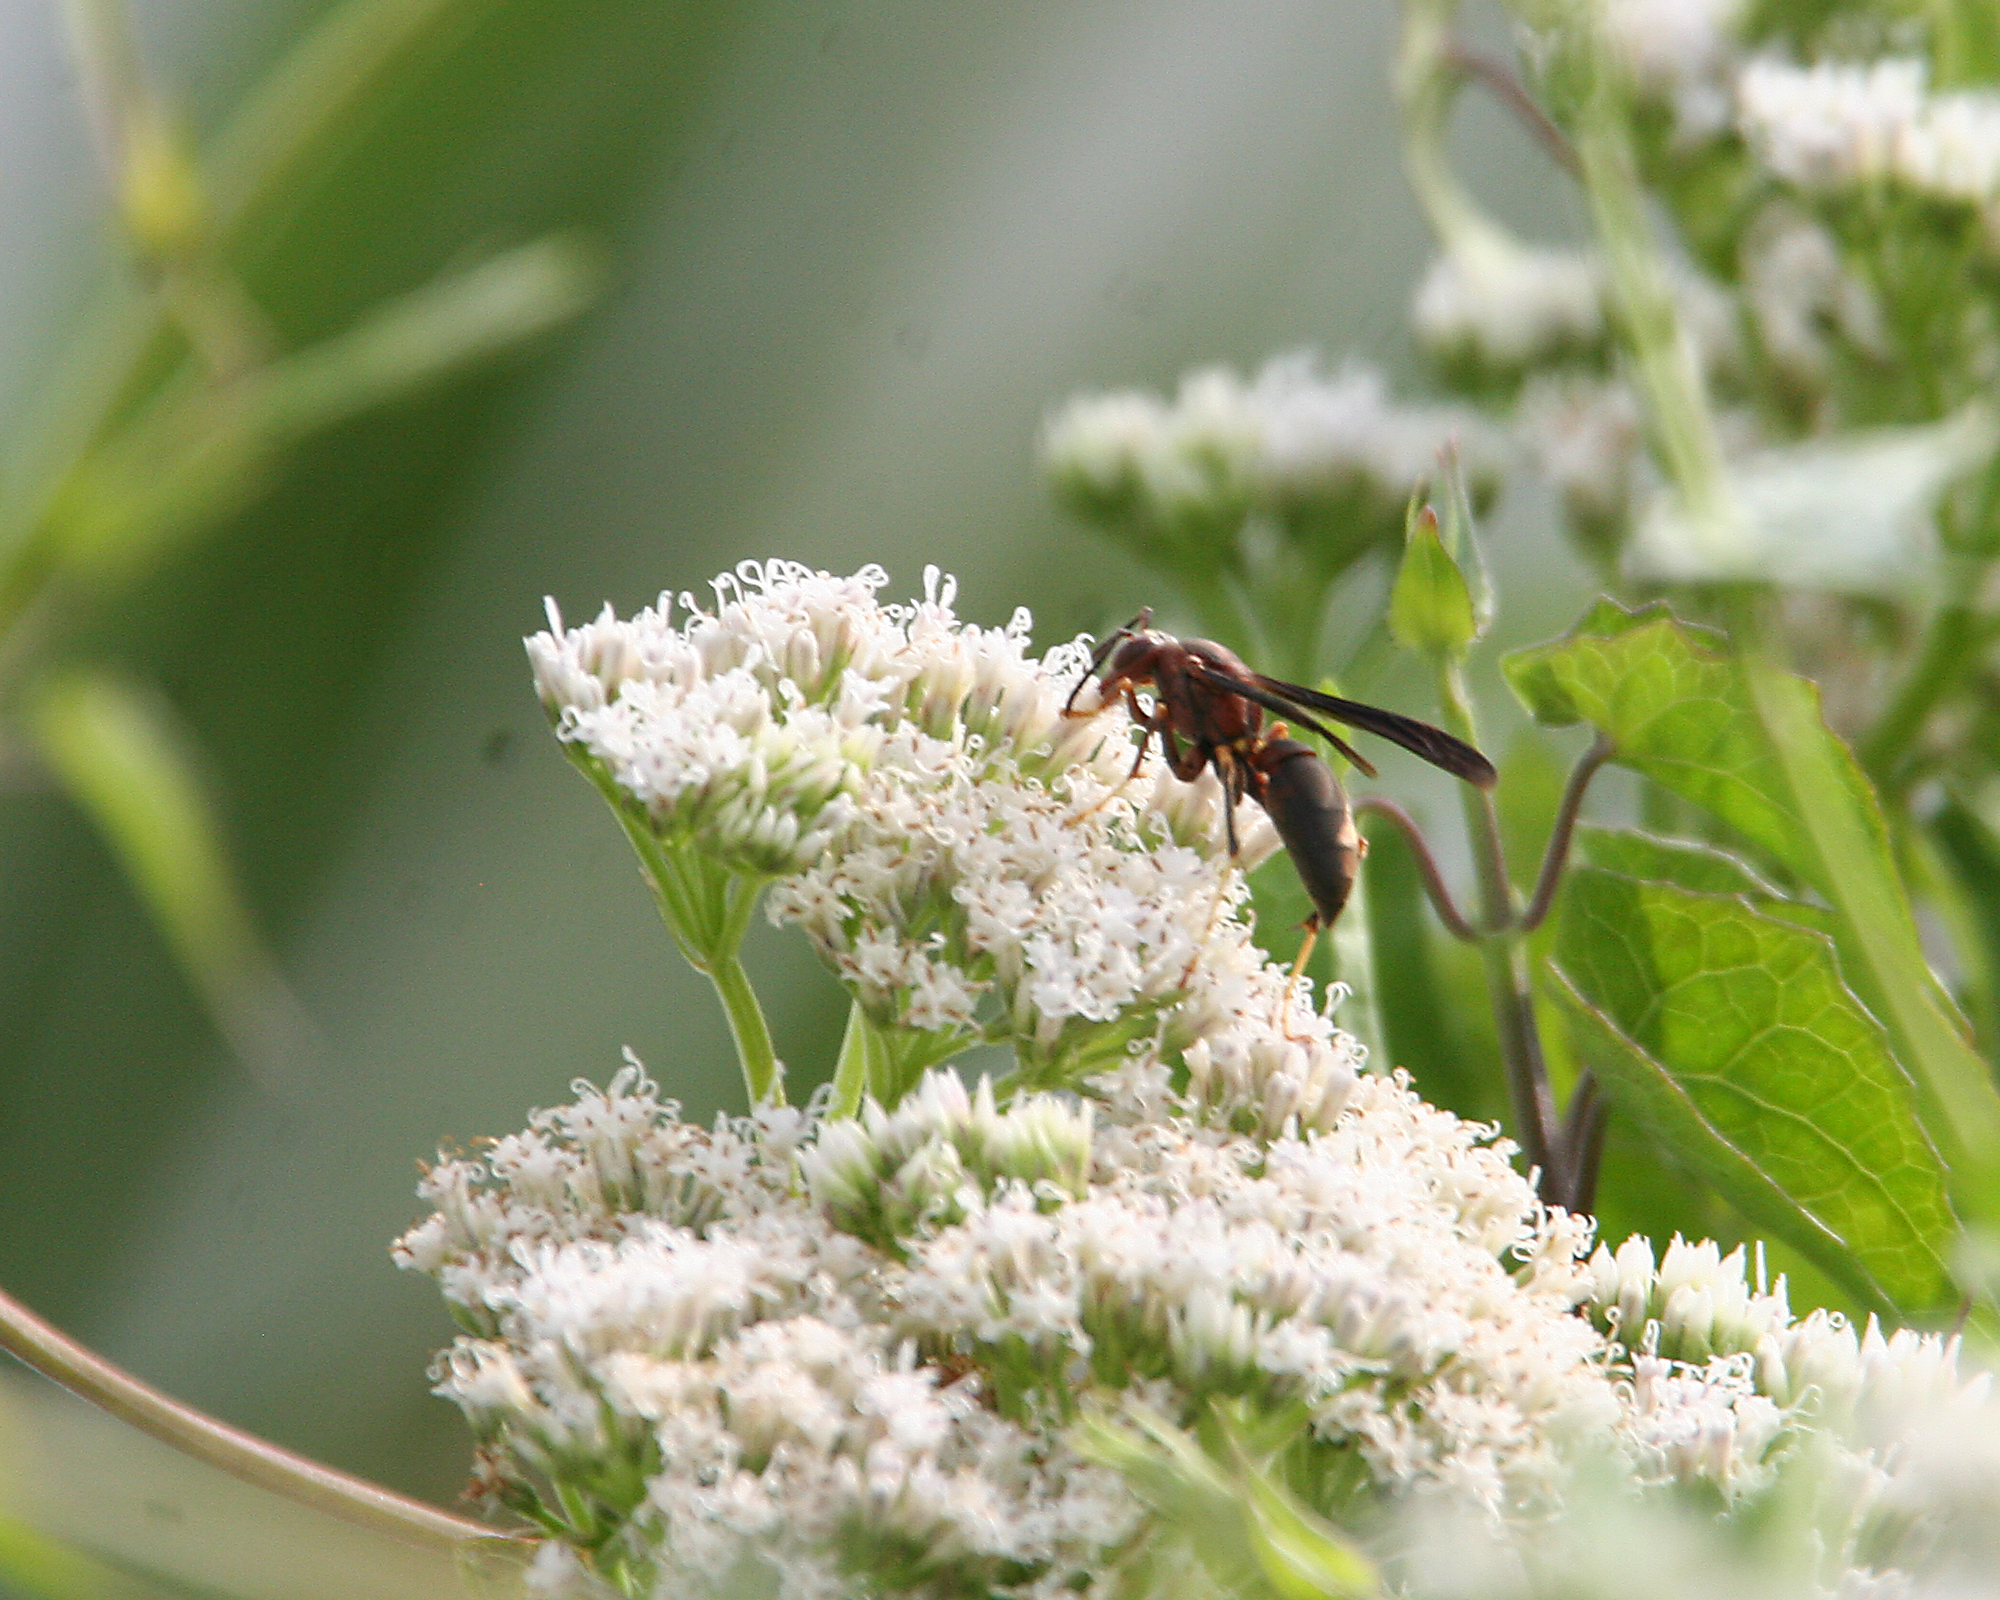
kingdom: Animalia
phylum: Arthropoda
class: Insecta
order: Hymenoptera
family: Eumenidae
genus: Polistes
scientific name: Polistes metricus
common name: Metric paper wasp
